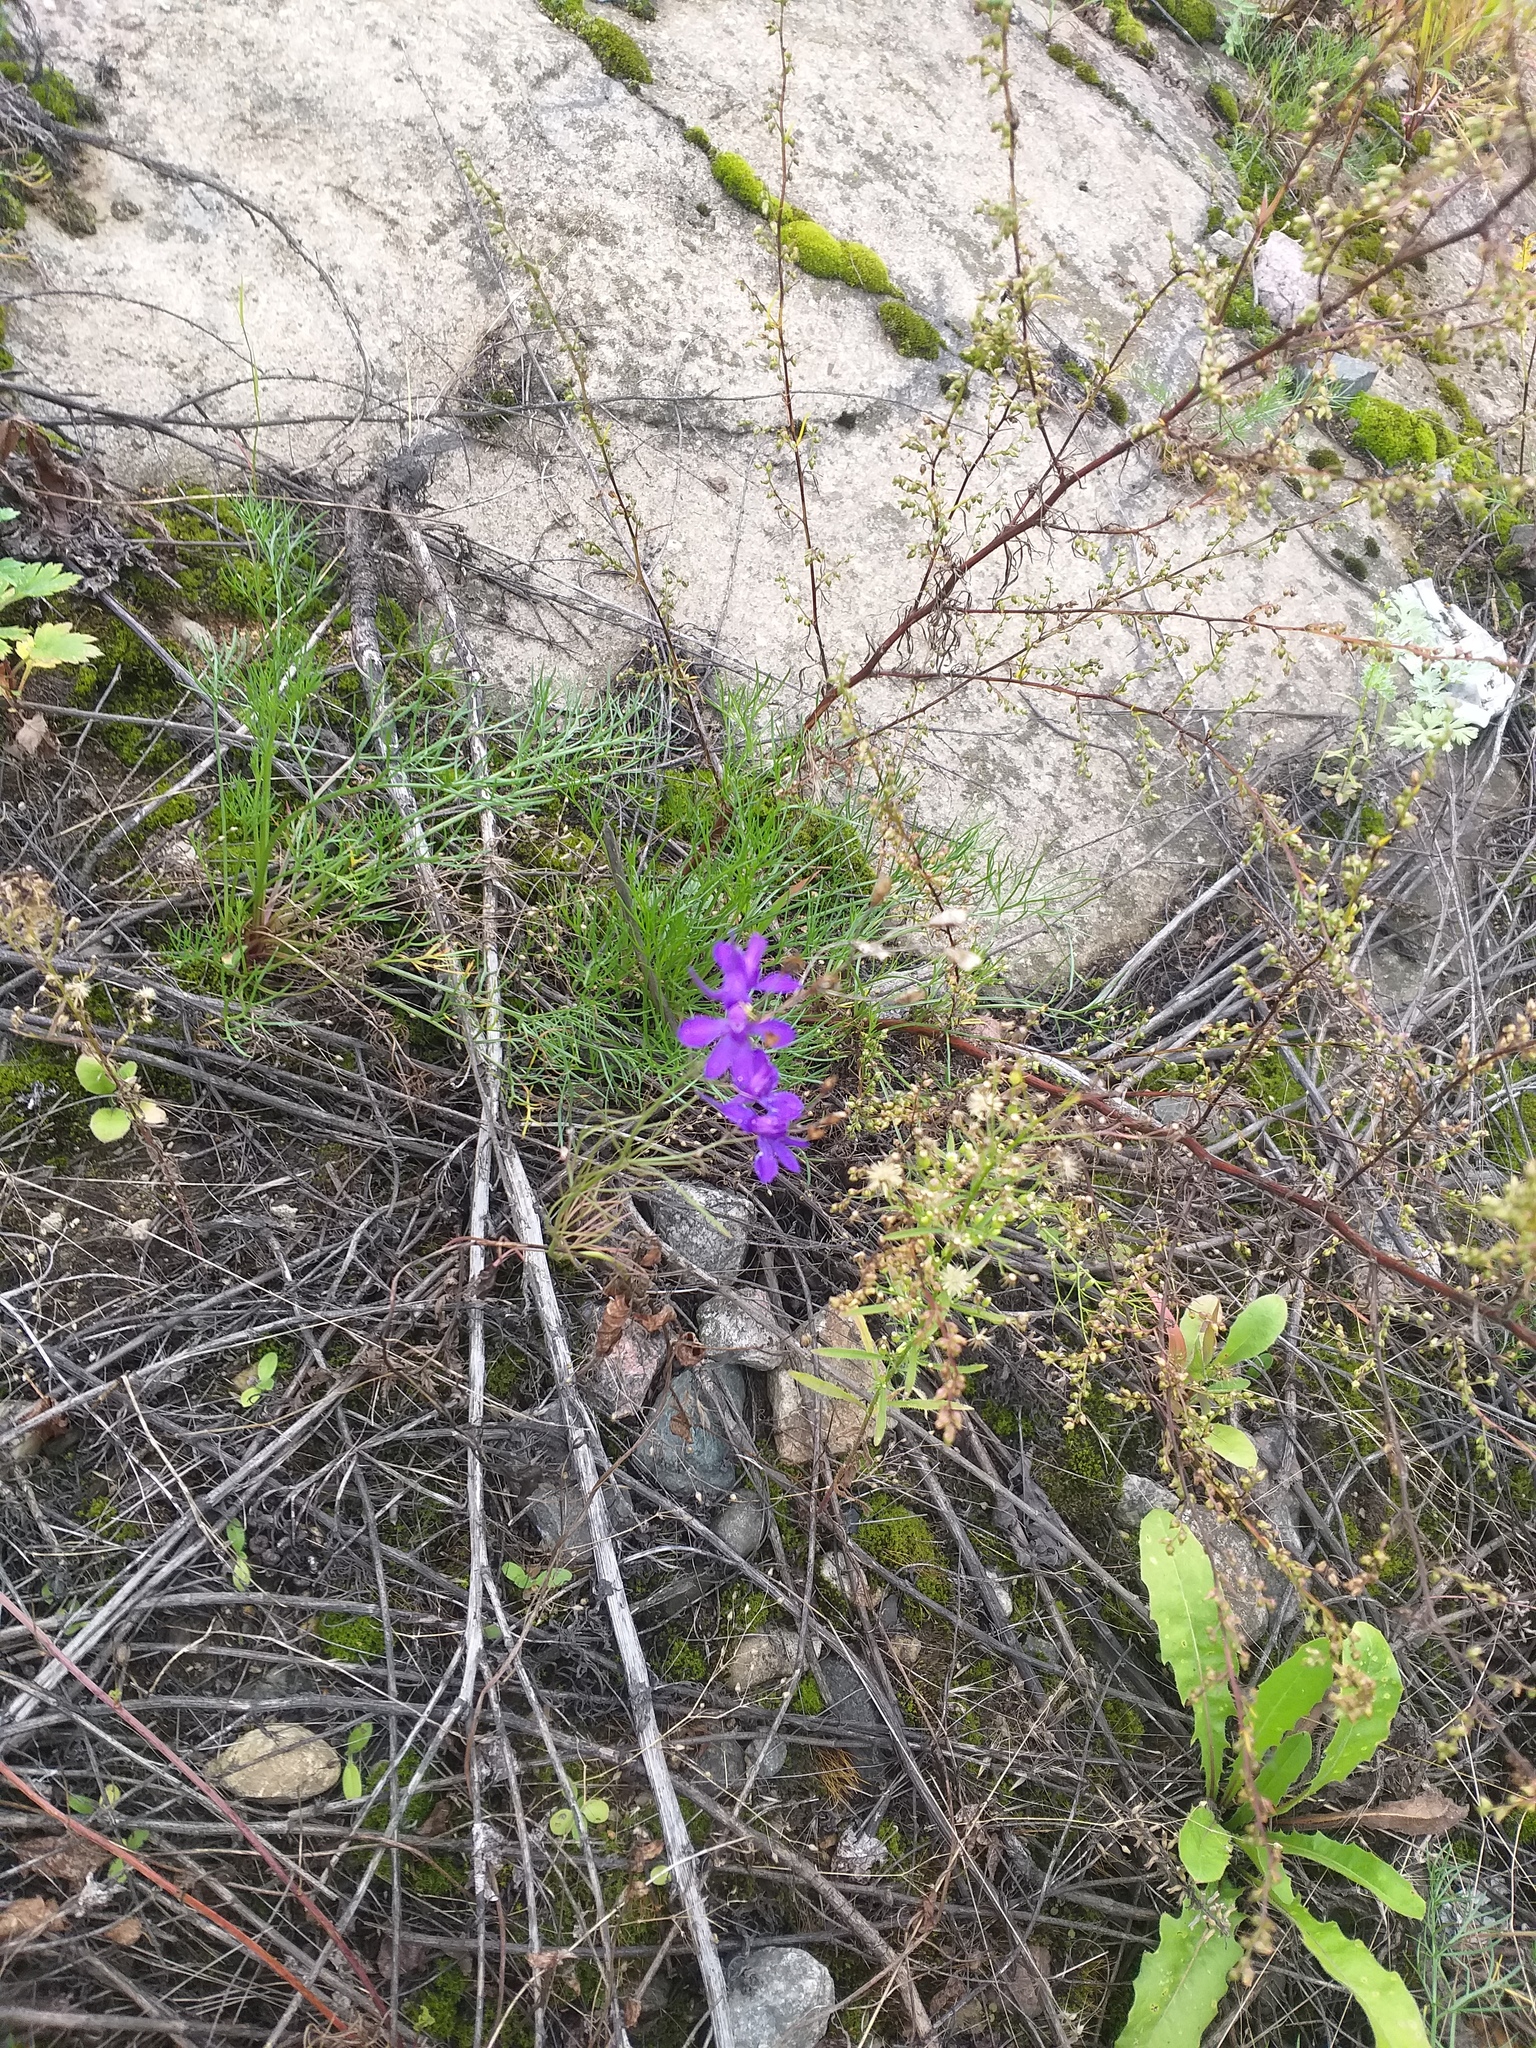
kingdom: Plantae
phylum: Tracheophyta
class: Magnoliopsida
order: Ranunculales
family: Ranunculaceae
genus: Delphinium
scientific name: Delphinium consolida
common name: Branching larkspur
